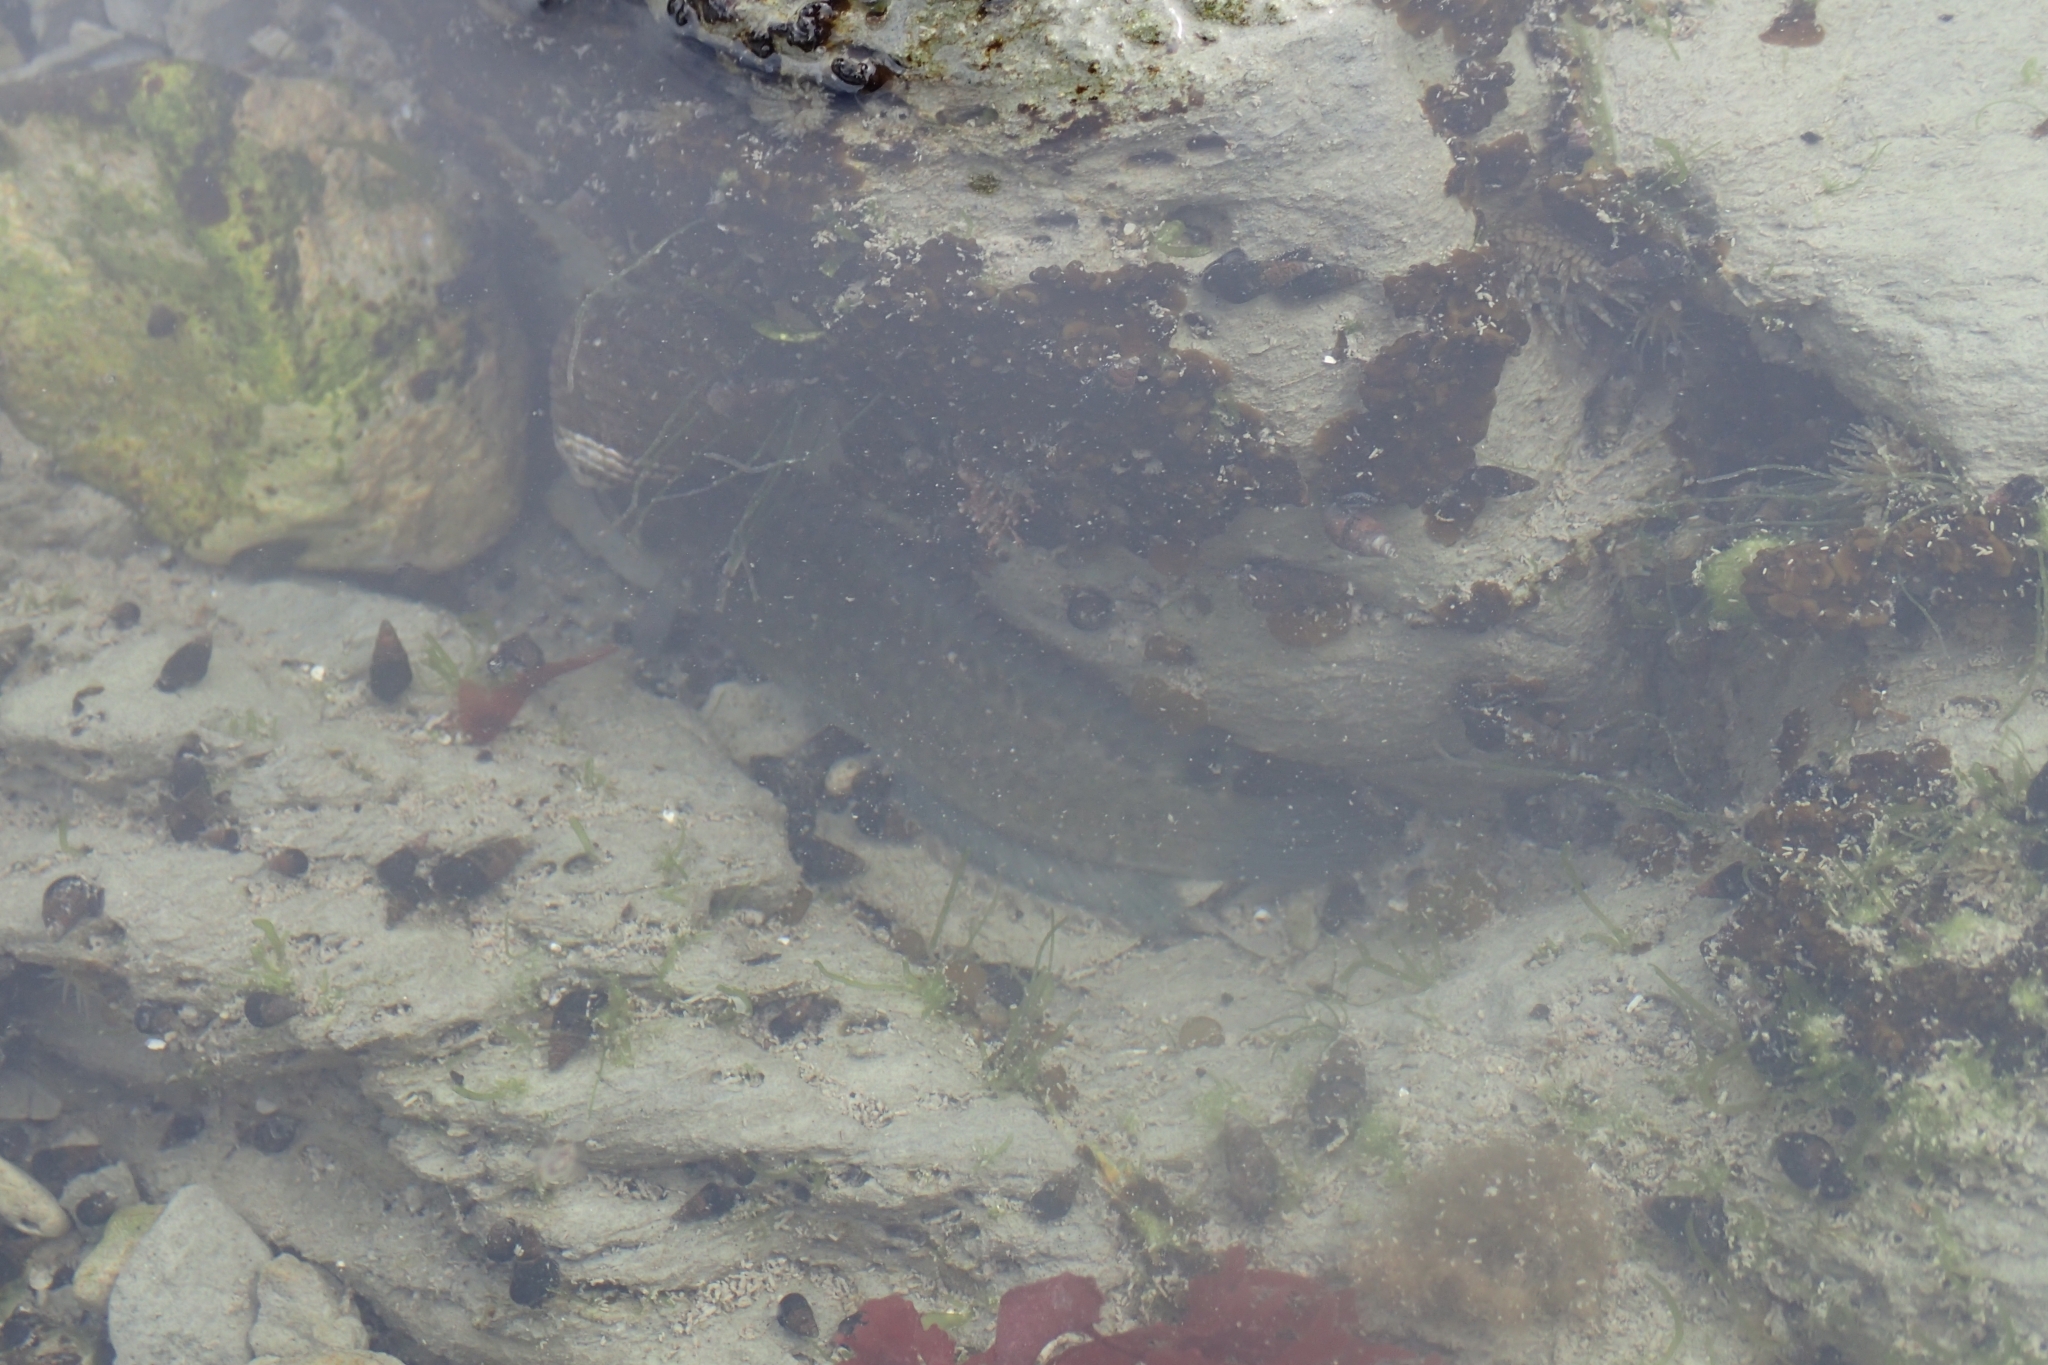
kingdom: Animalia
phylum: Chordata
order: Perciformes
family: Plesiopidae
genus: Acanthoclinus
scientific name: Acanthoclinus fuscus
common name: Olive rockfish
